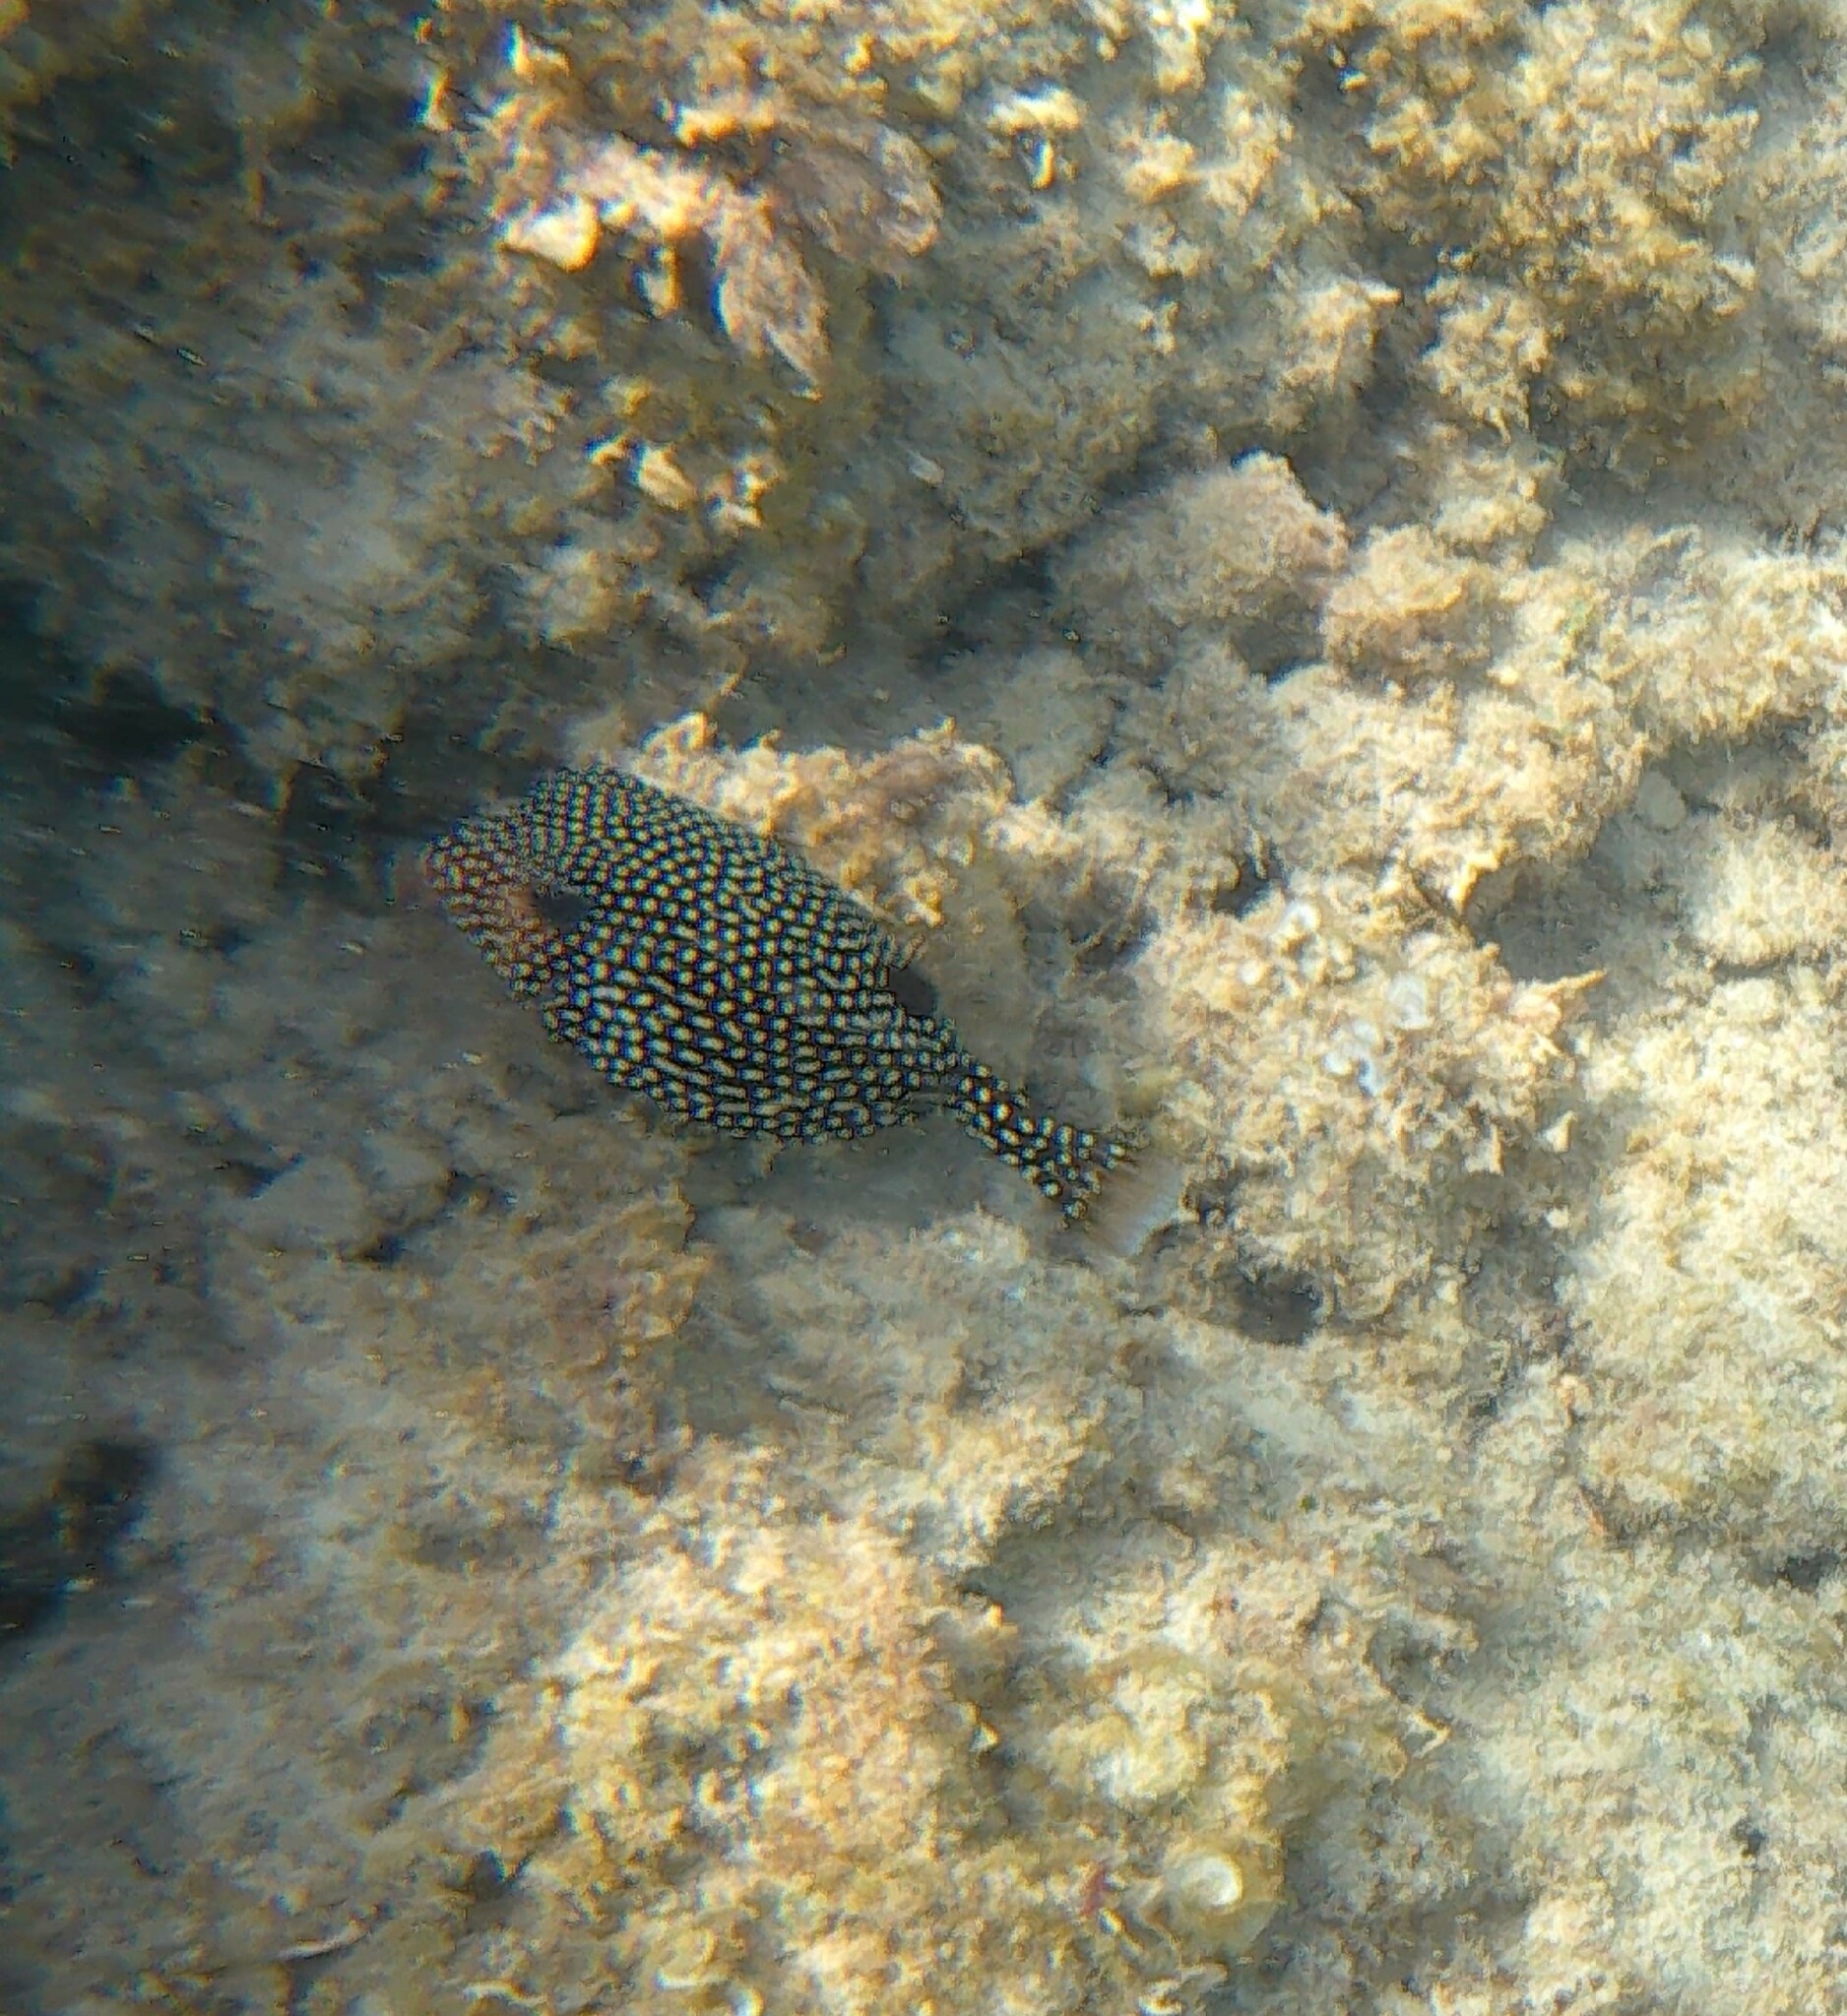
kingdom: Animalia
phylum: Chordata
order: Tetraodontiformes
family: Ostraciidae
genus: Ostracion
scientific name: Ostracion meleagris
